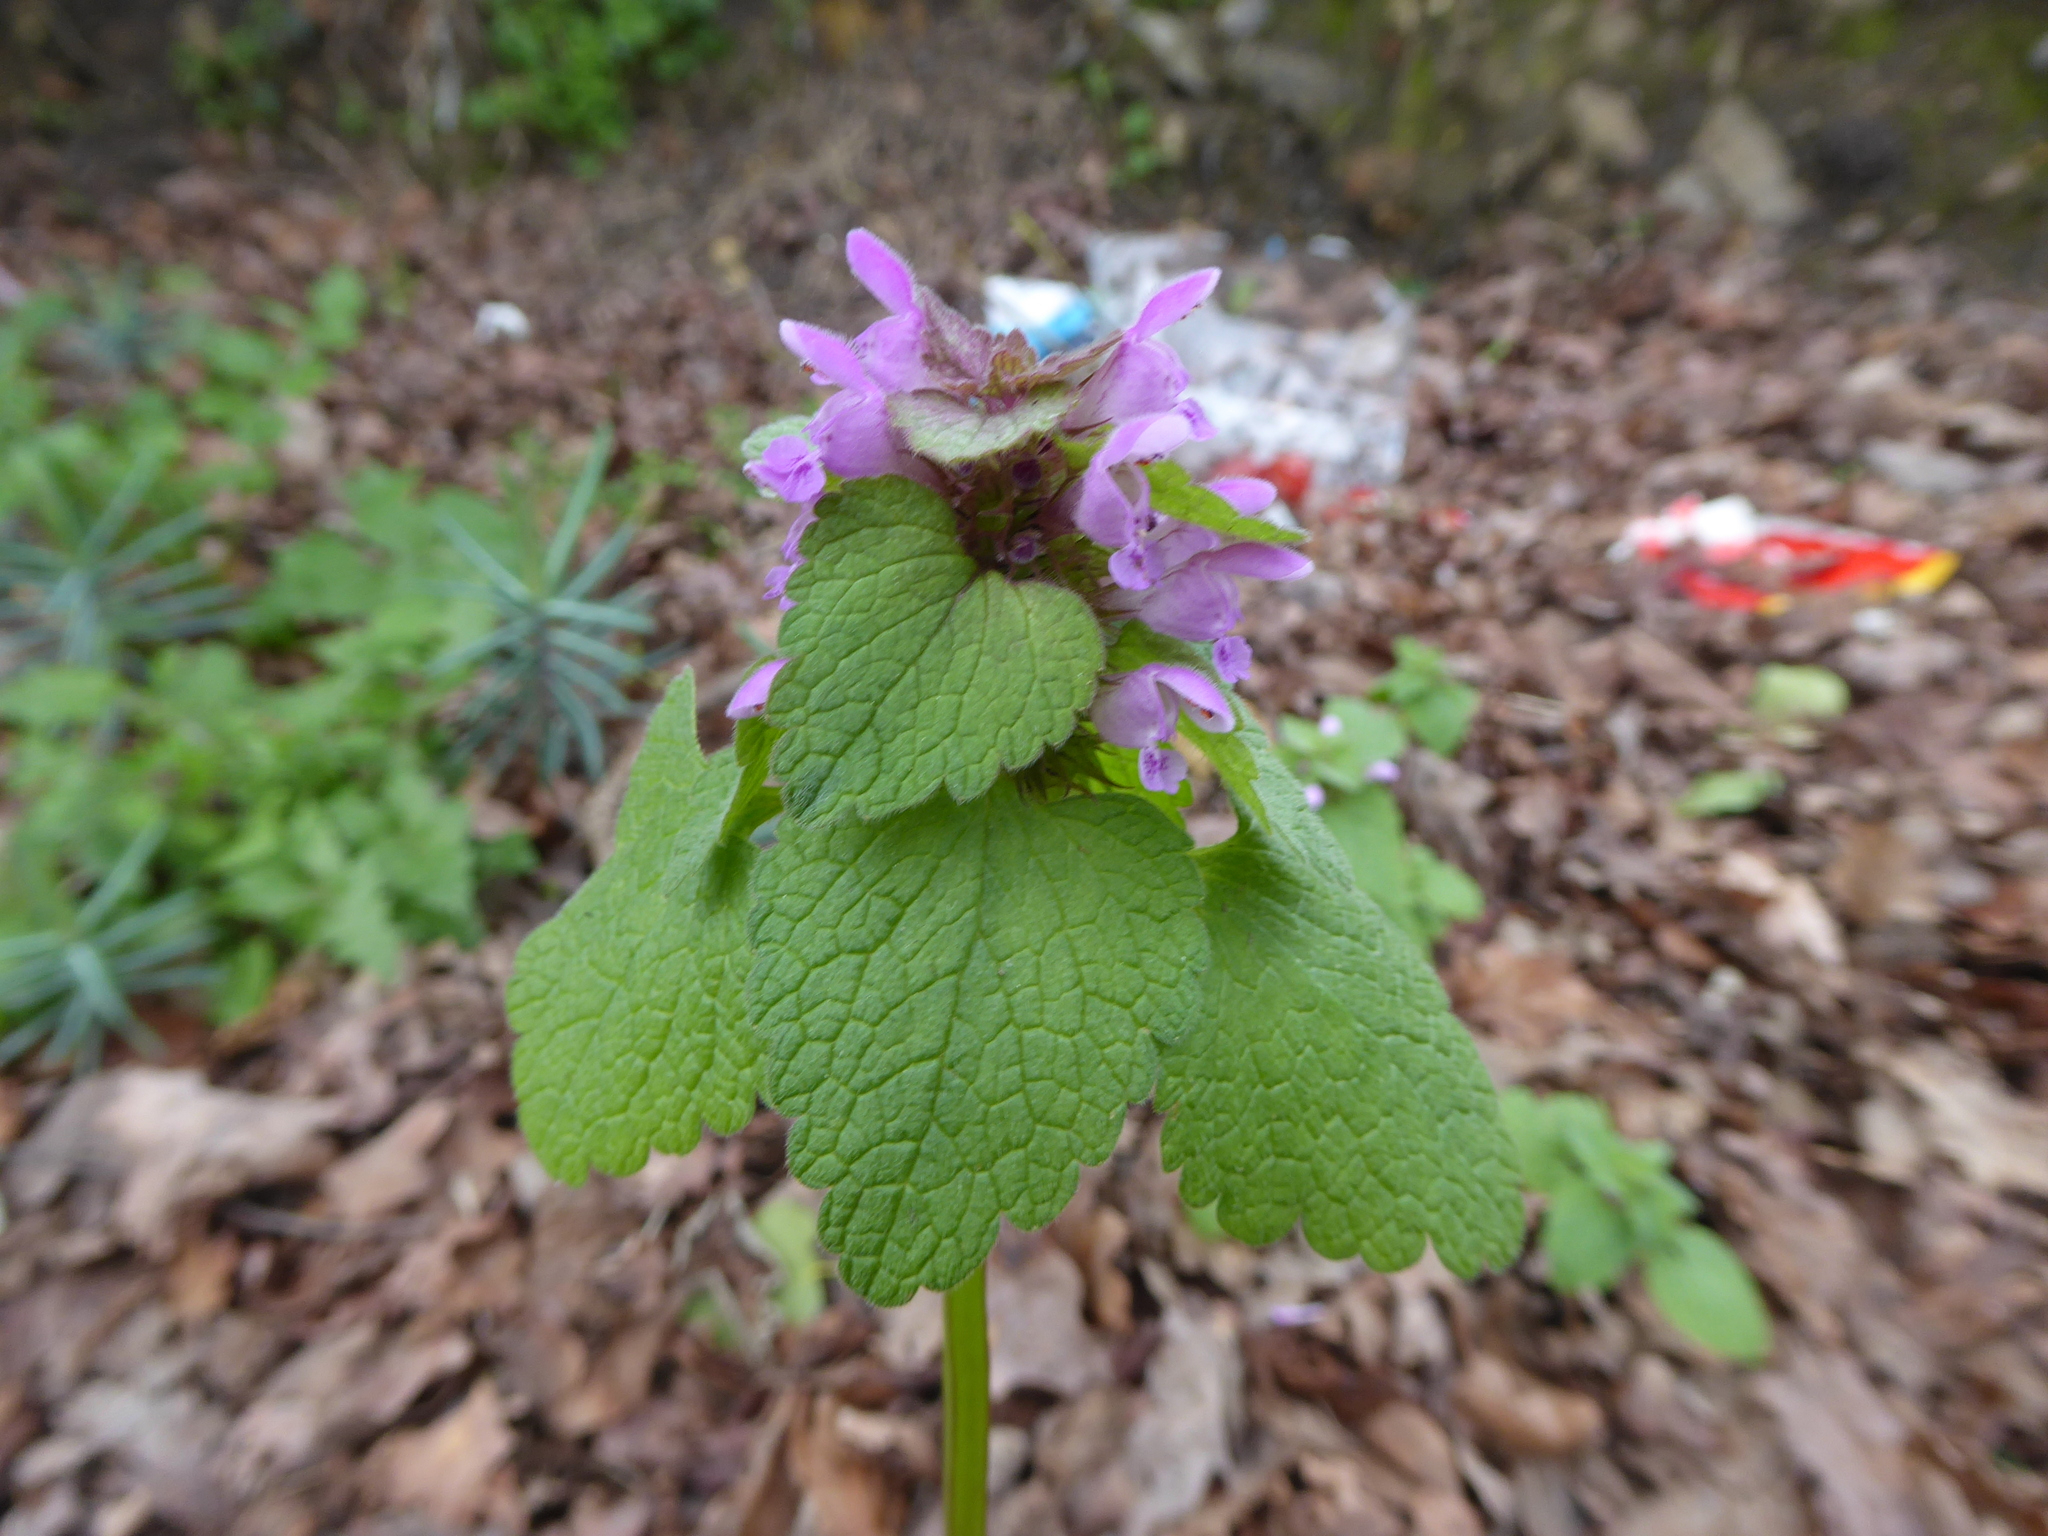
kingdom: Plantae
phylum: Tracheophyta
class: Magnoliopsida
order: Lamiales
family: Lamiaceae
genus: Lamium
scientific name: Lamium purpureum
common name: Red dead-nettle
